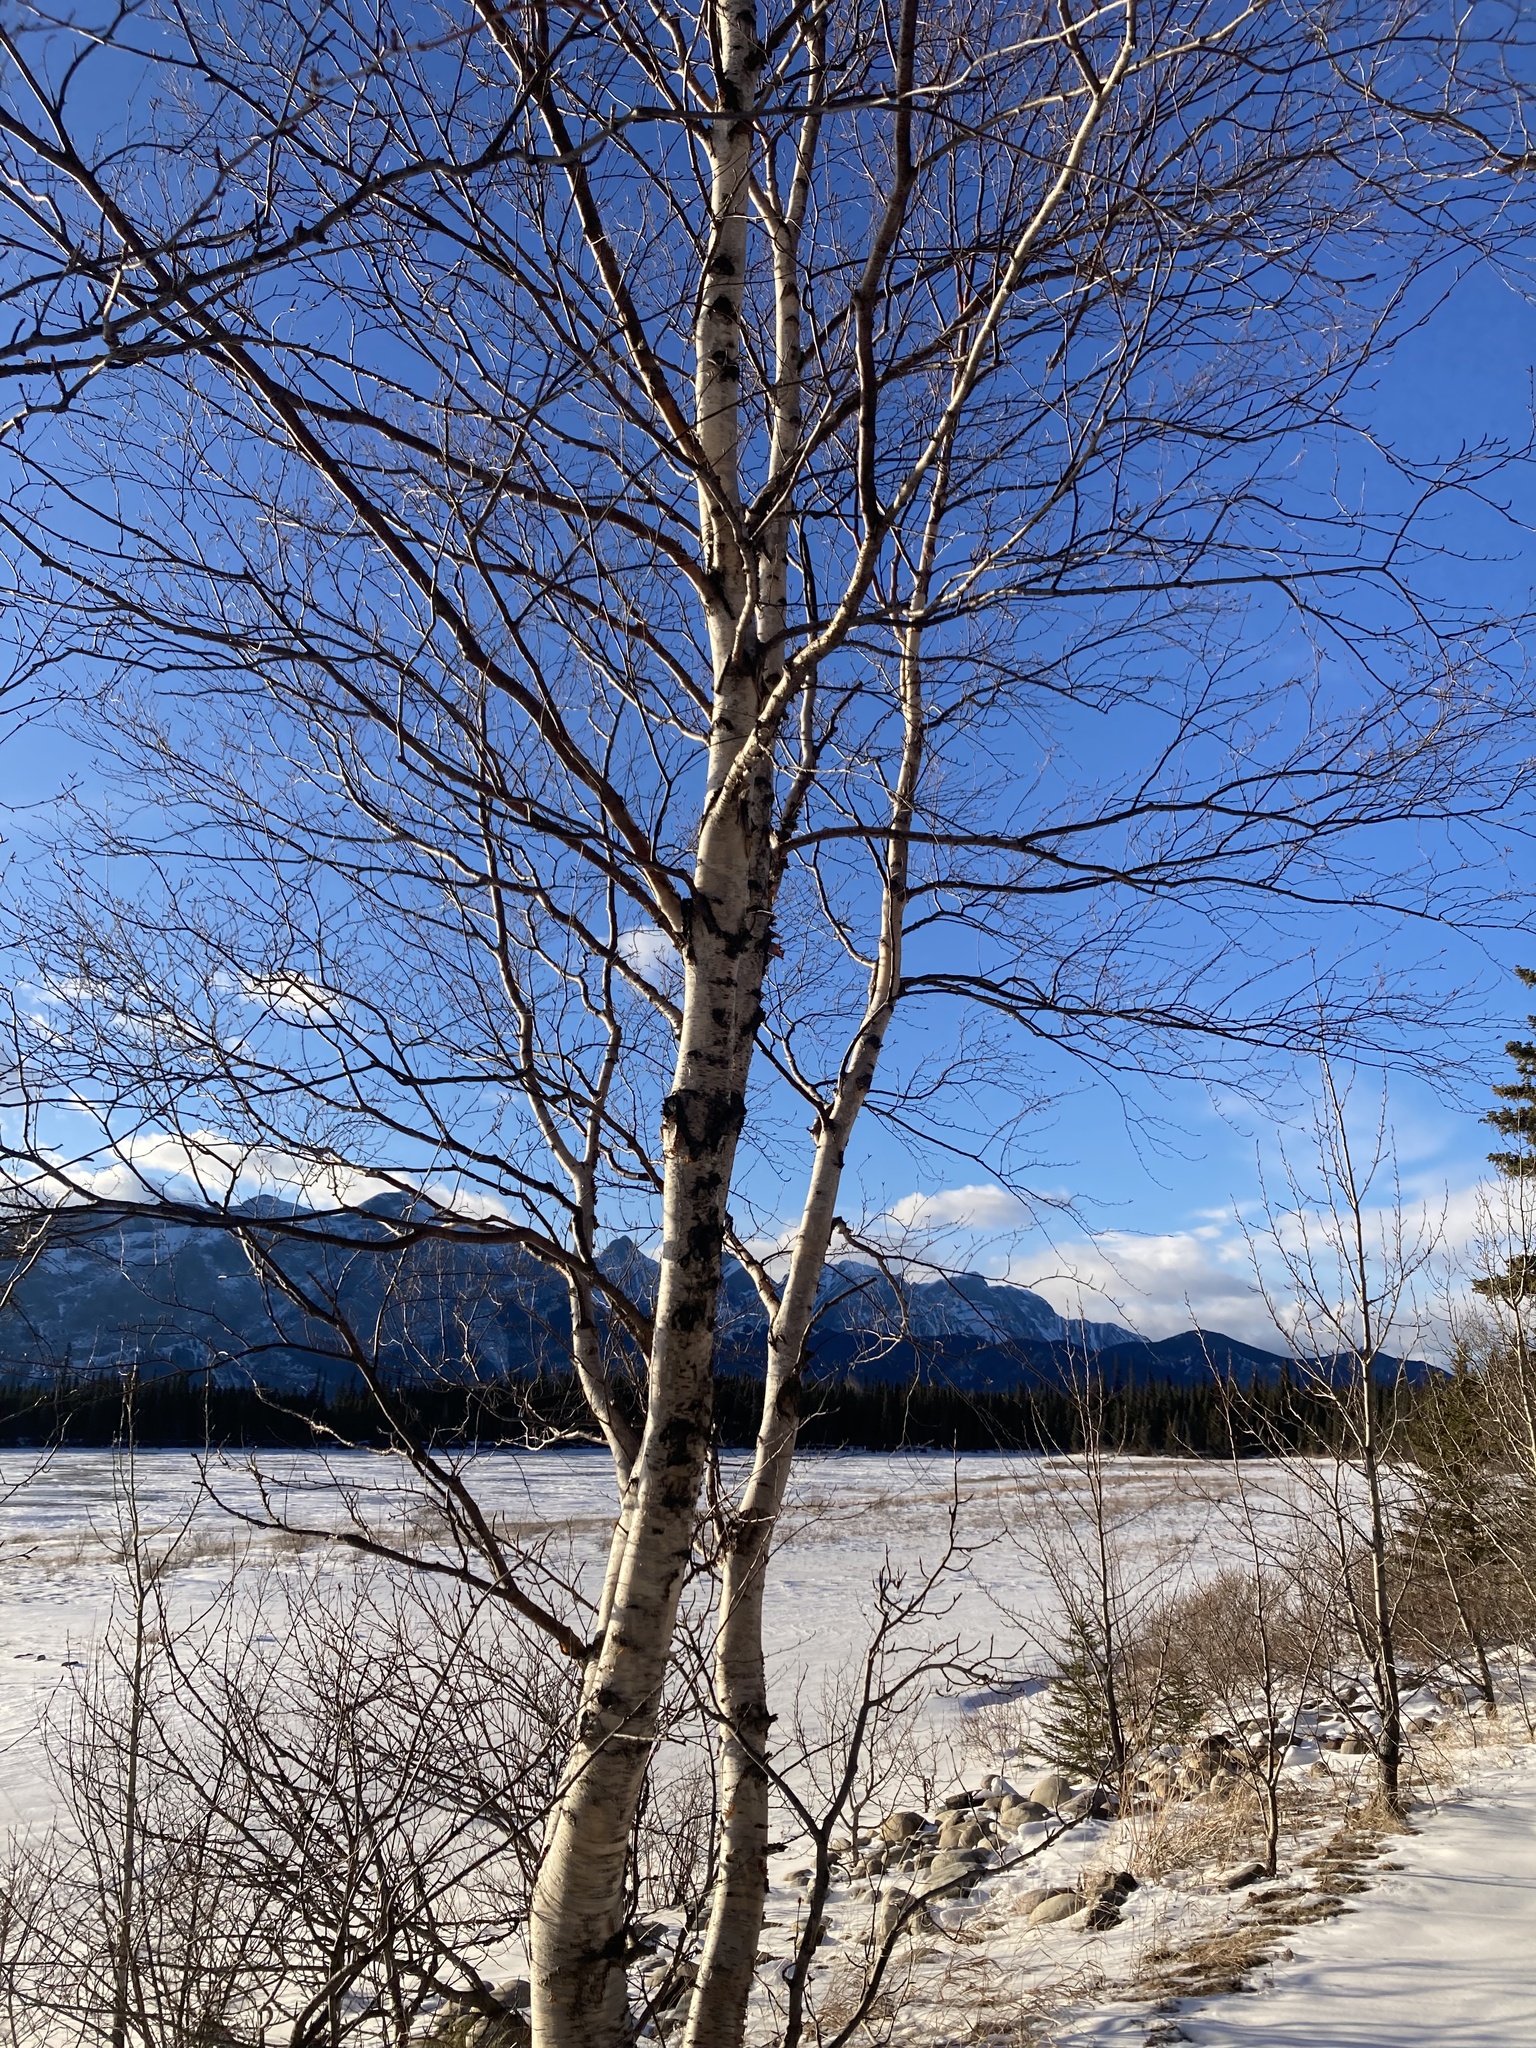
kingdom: Plantae
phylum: Tracheophyta
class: Magnoliopsida
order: Fagales
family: Betulaceae
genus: Betula
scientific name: Betula papyrifera
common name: Paper birch
